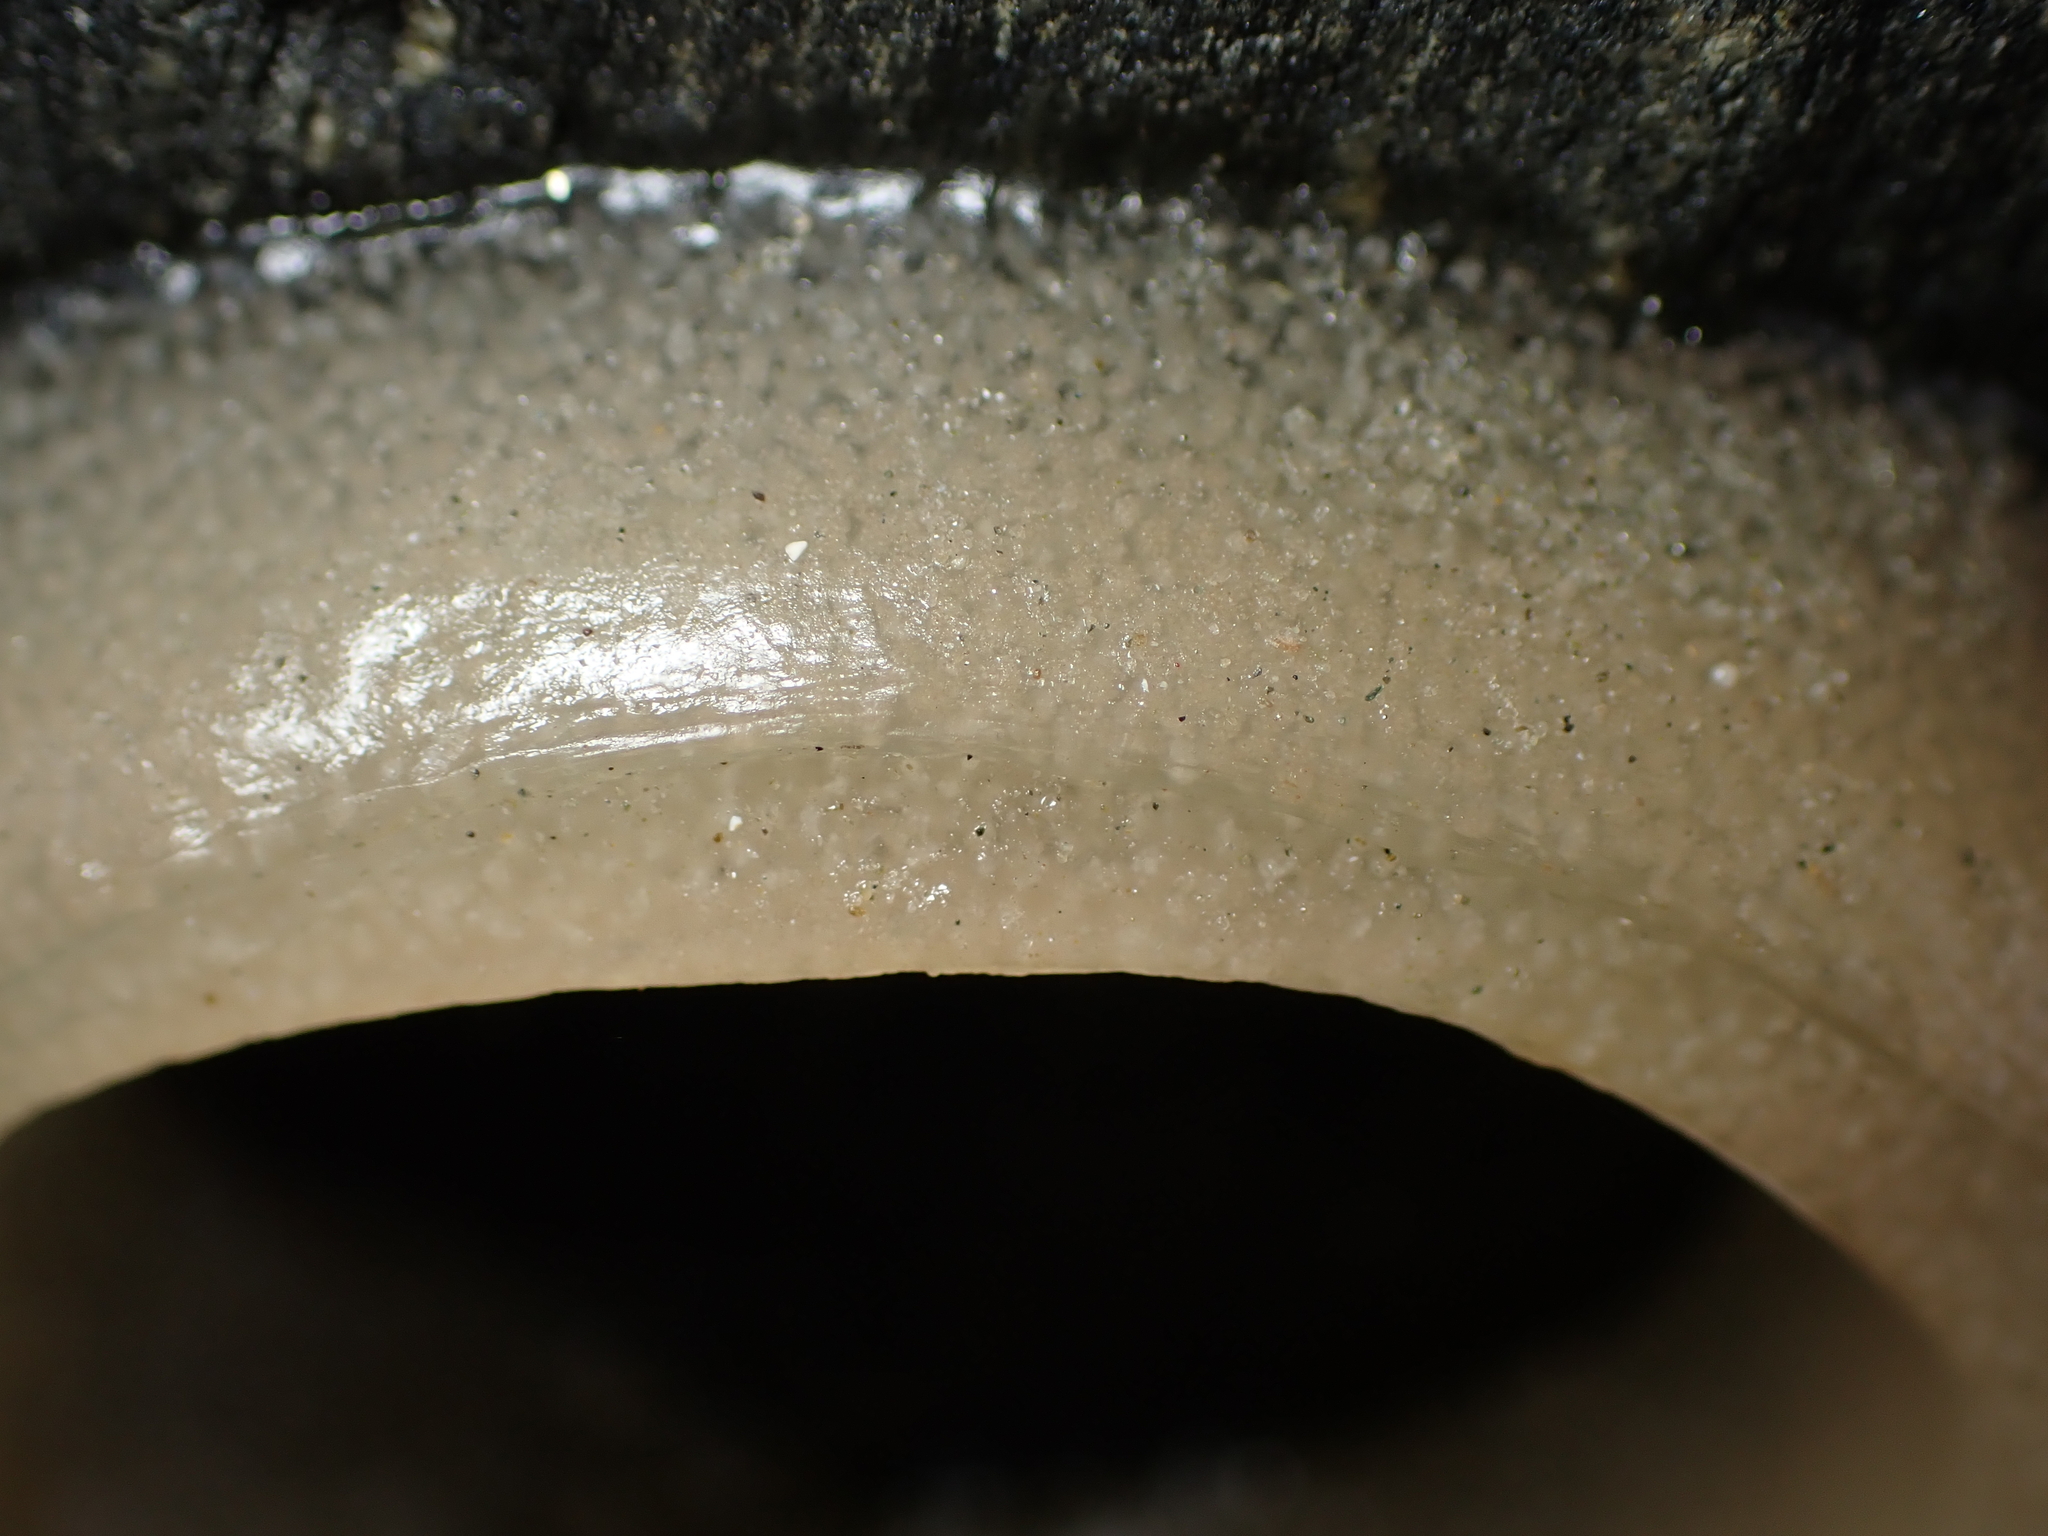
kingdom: Animalia
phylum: Mollusca
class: Gastropoda
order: Siphonariida
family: Siphonariidae
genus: Benhamina
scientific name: Benhamina obliquata
